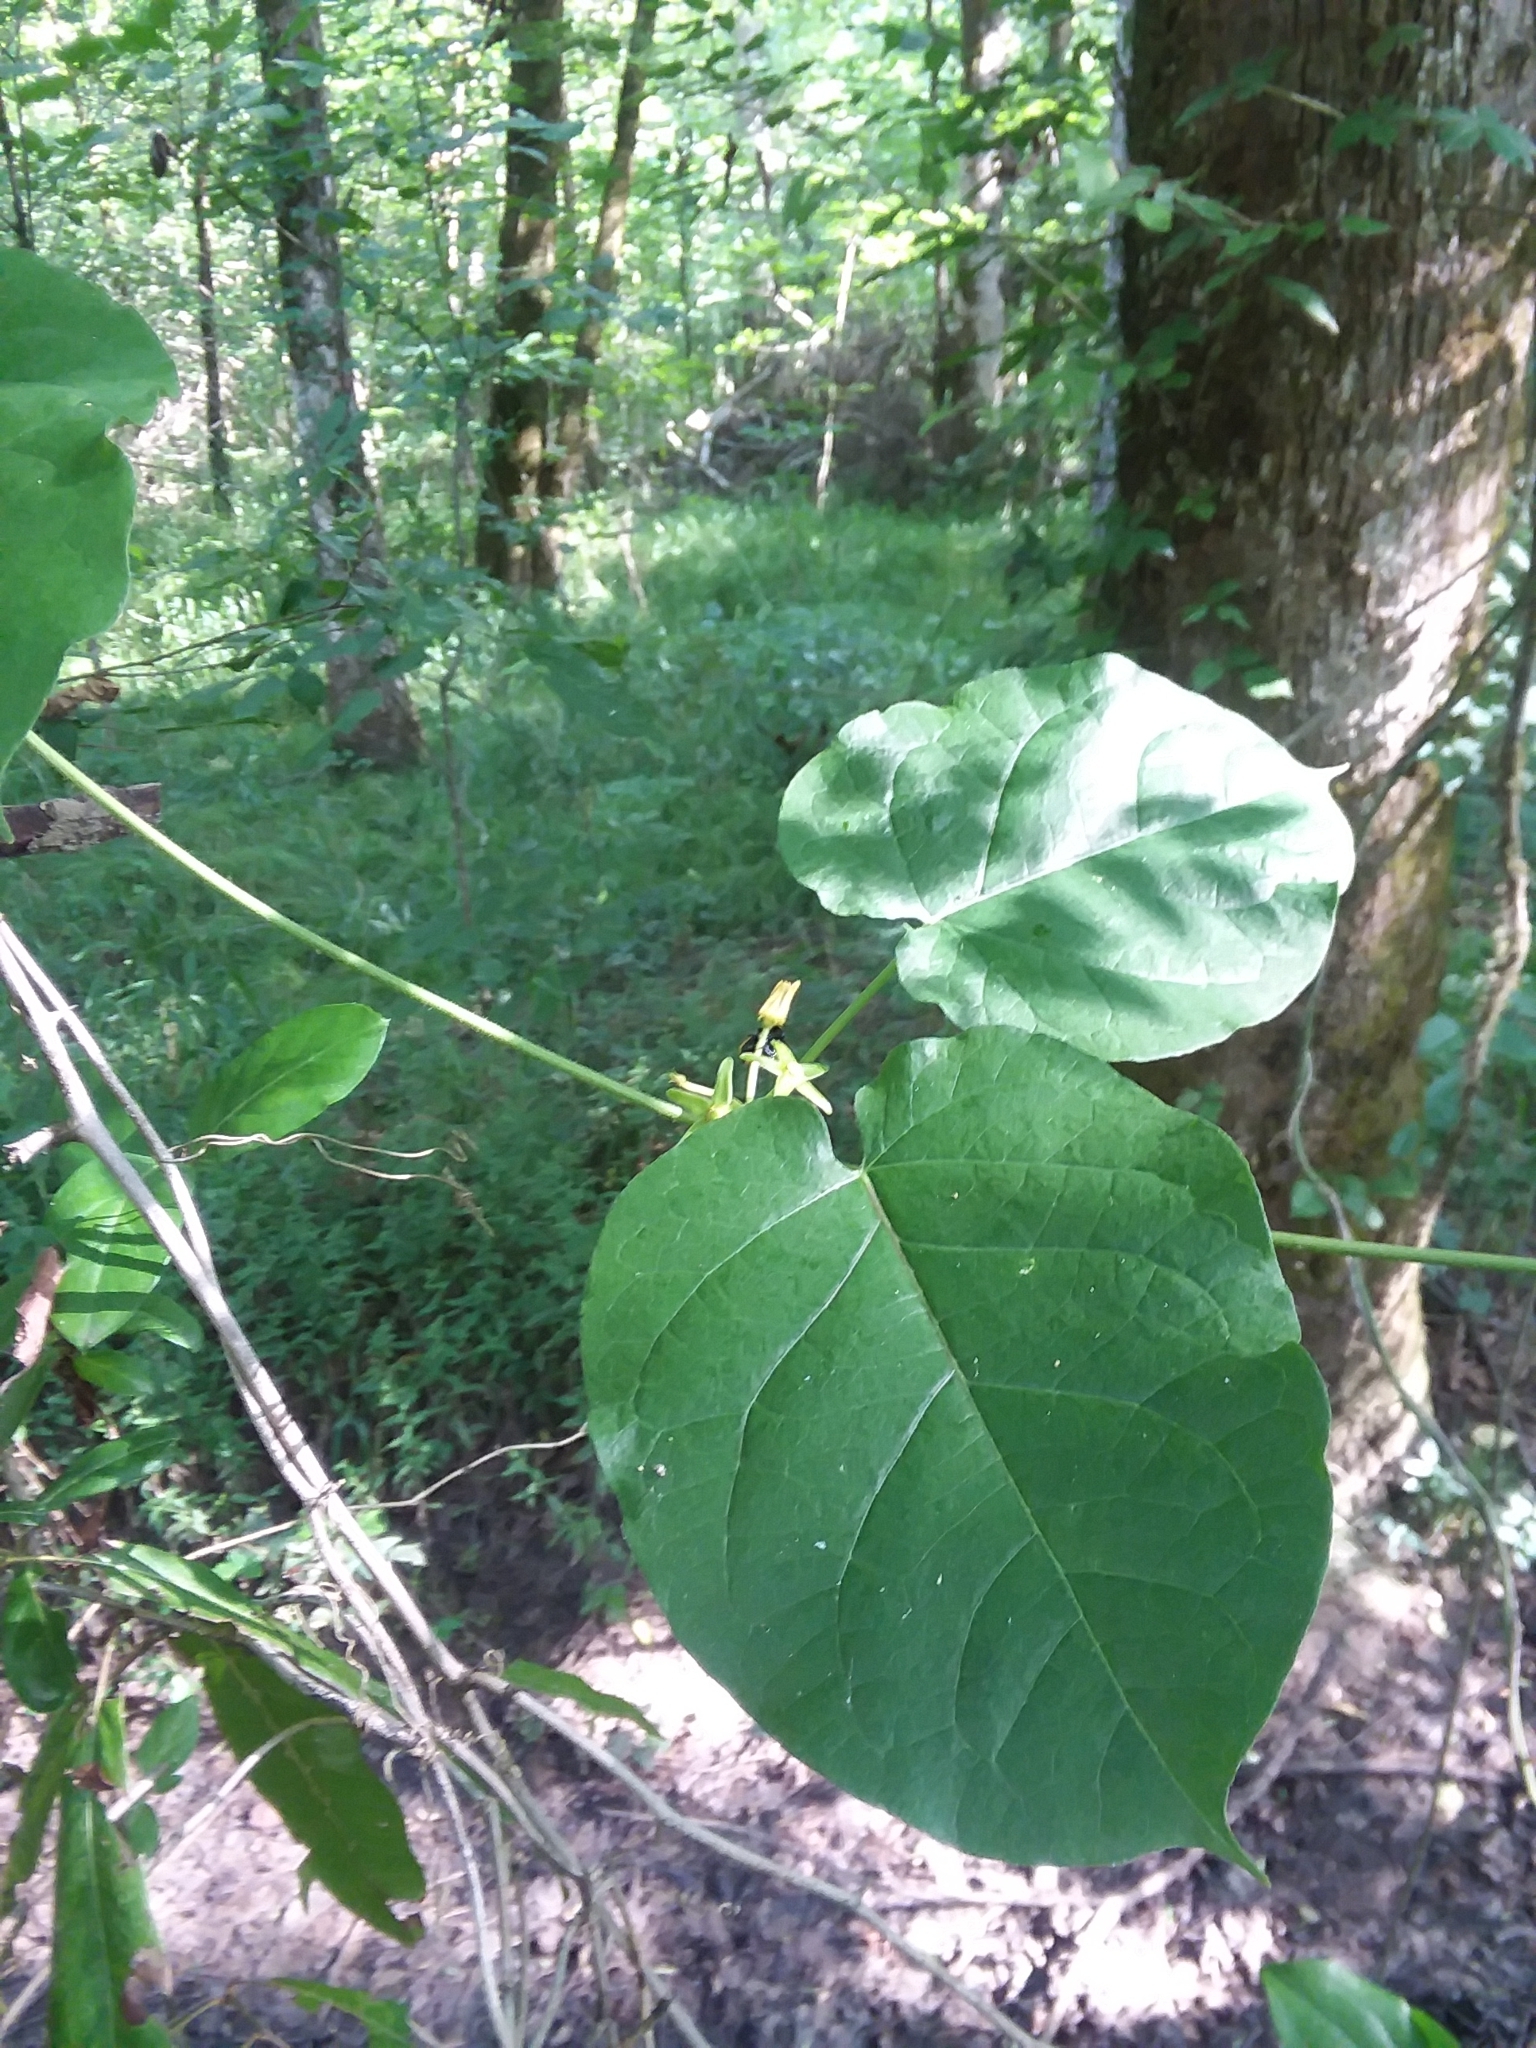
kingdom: Plantae
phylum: Tracheophyta
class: Magnoliopsida
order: Gentianales
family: Apocynaceae
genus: Gonolobus
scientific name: Gonolobus suberosus
